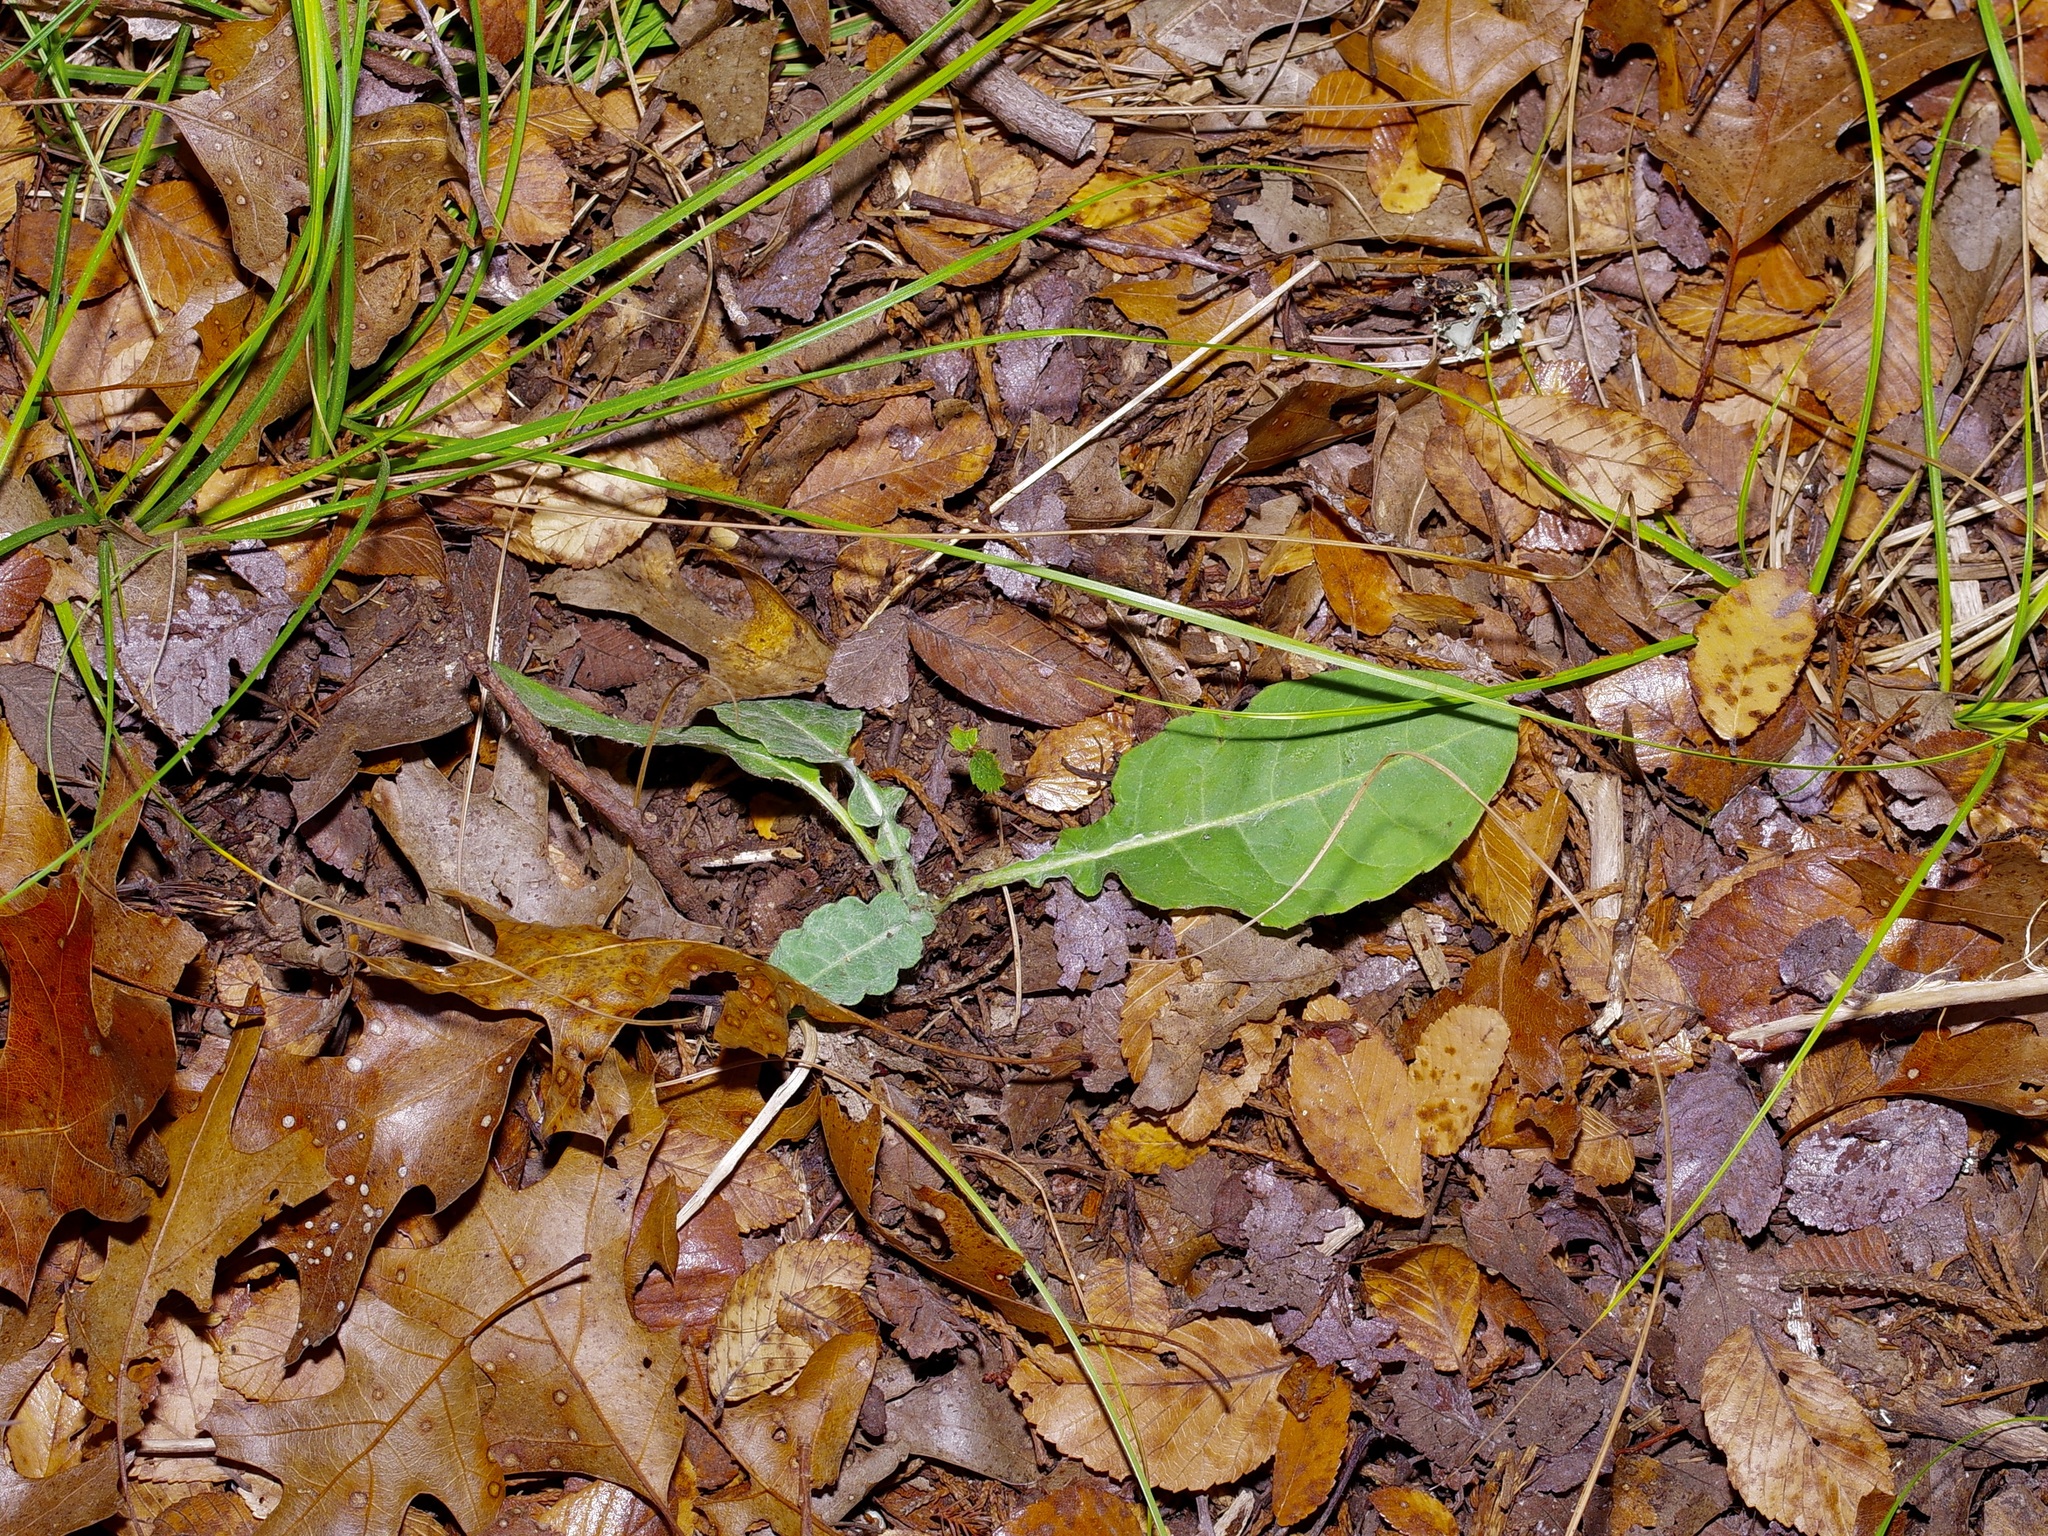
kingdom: Plantae
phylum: Tracheophyta
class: Magnoliopsida
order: Asterales
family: Asteraceae
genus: Chaptalia
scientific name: Chaptalia texana
